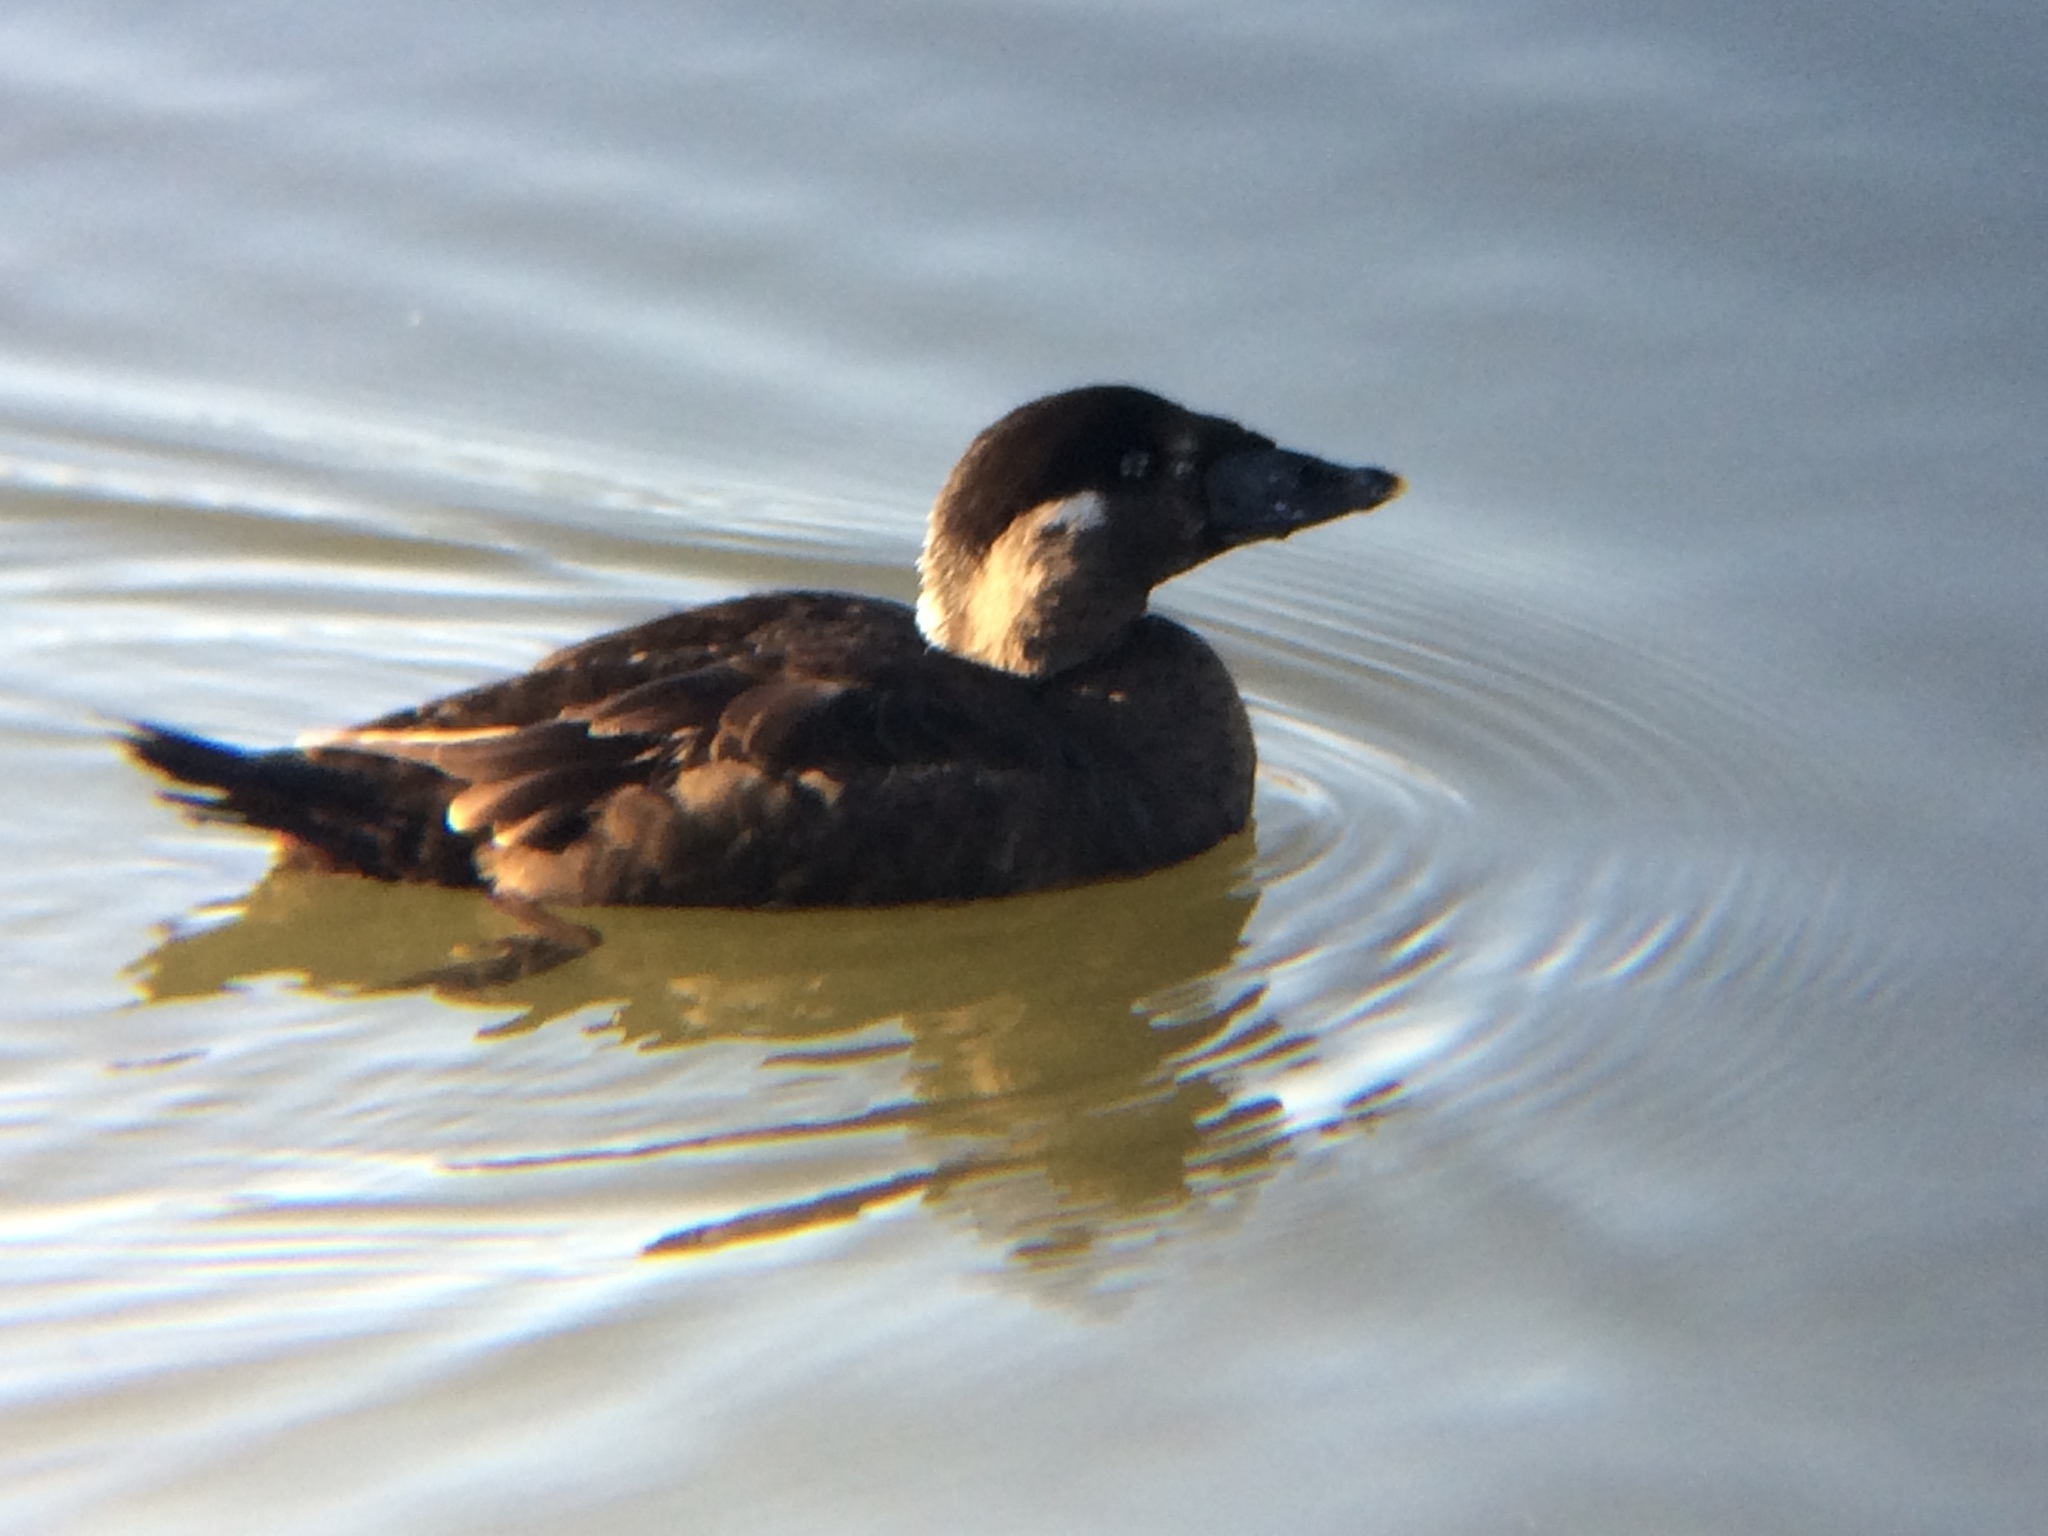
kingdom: Animalia
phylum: Chordata
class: Aves
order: Anseriformes
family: Anatidae
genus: Melanitta
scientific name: Melanitta perspicillata
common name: Surf scoter
